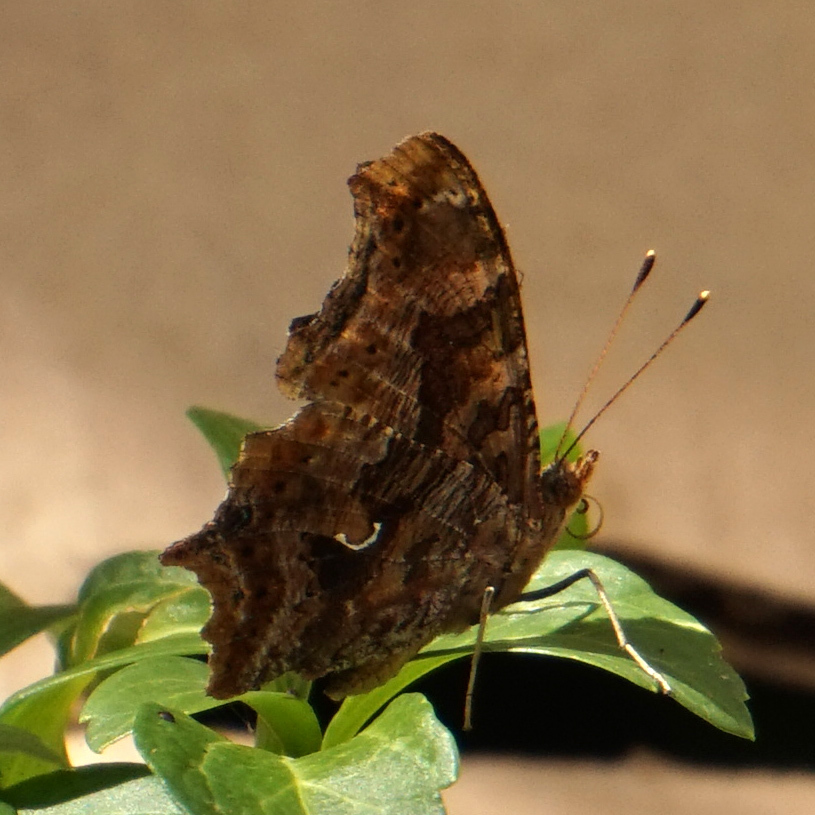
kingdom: Animalia
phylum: Arthropoda
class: Insecta
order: Lepidoptera
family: Nymphalidae
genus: Polygonia
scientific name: Polygonia comma
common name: Eastern comma
